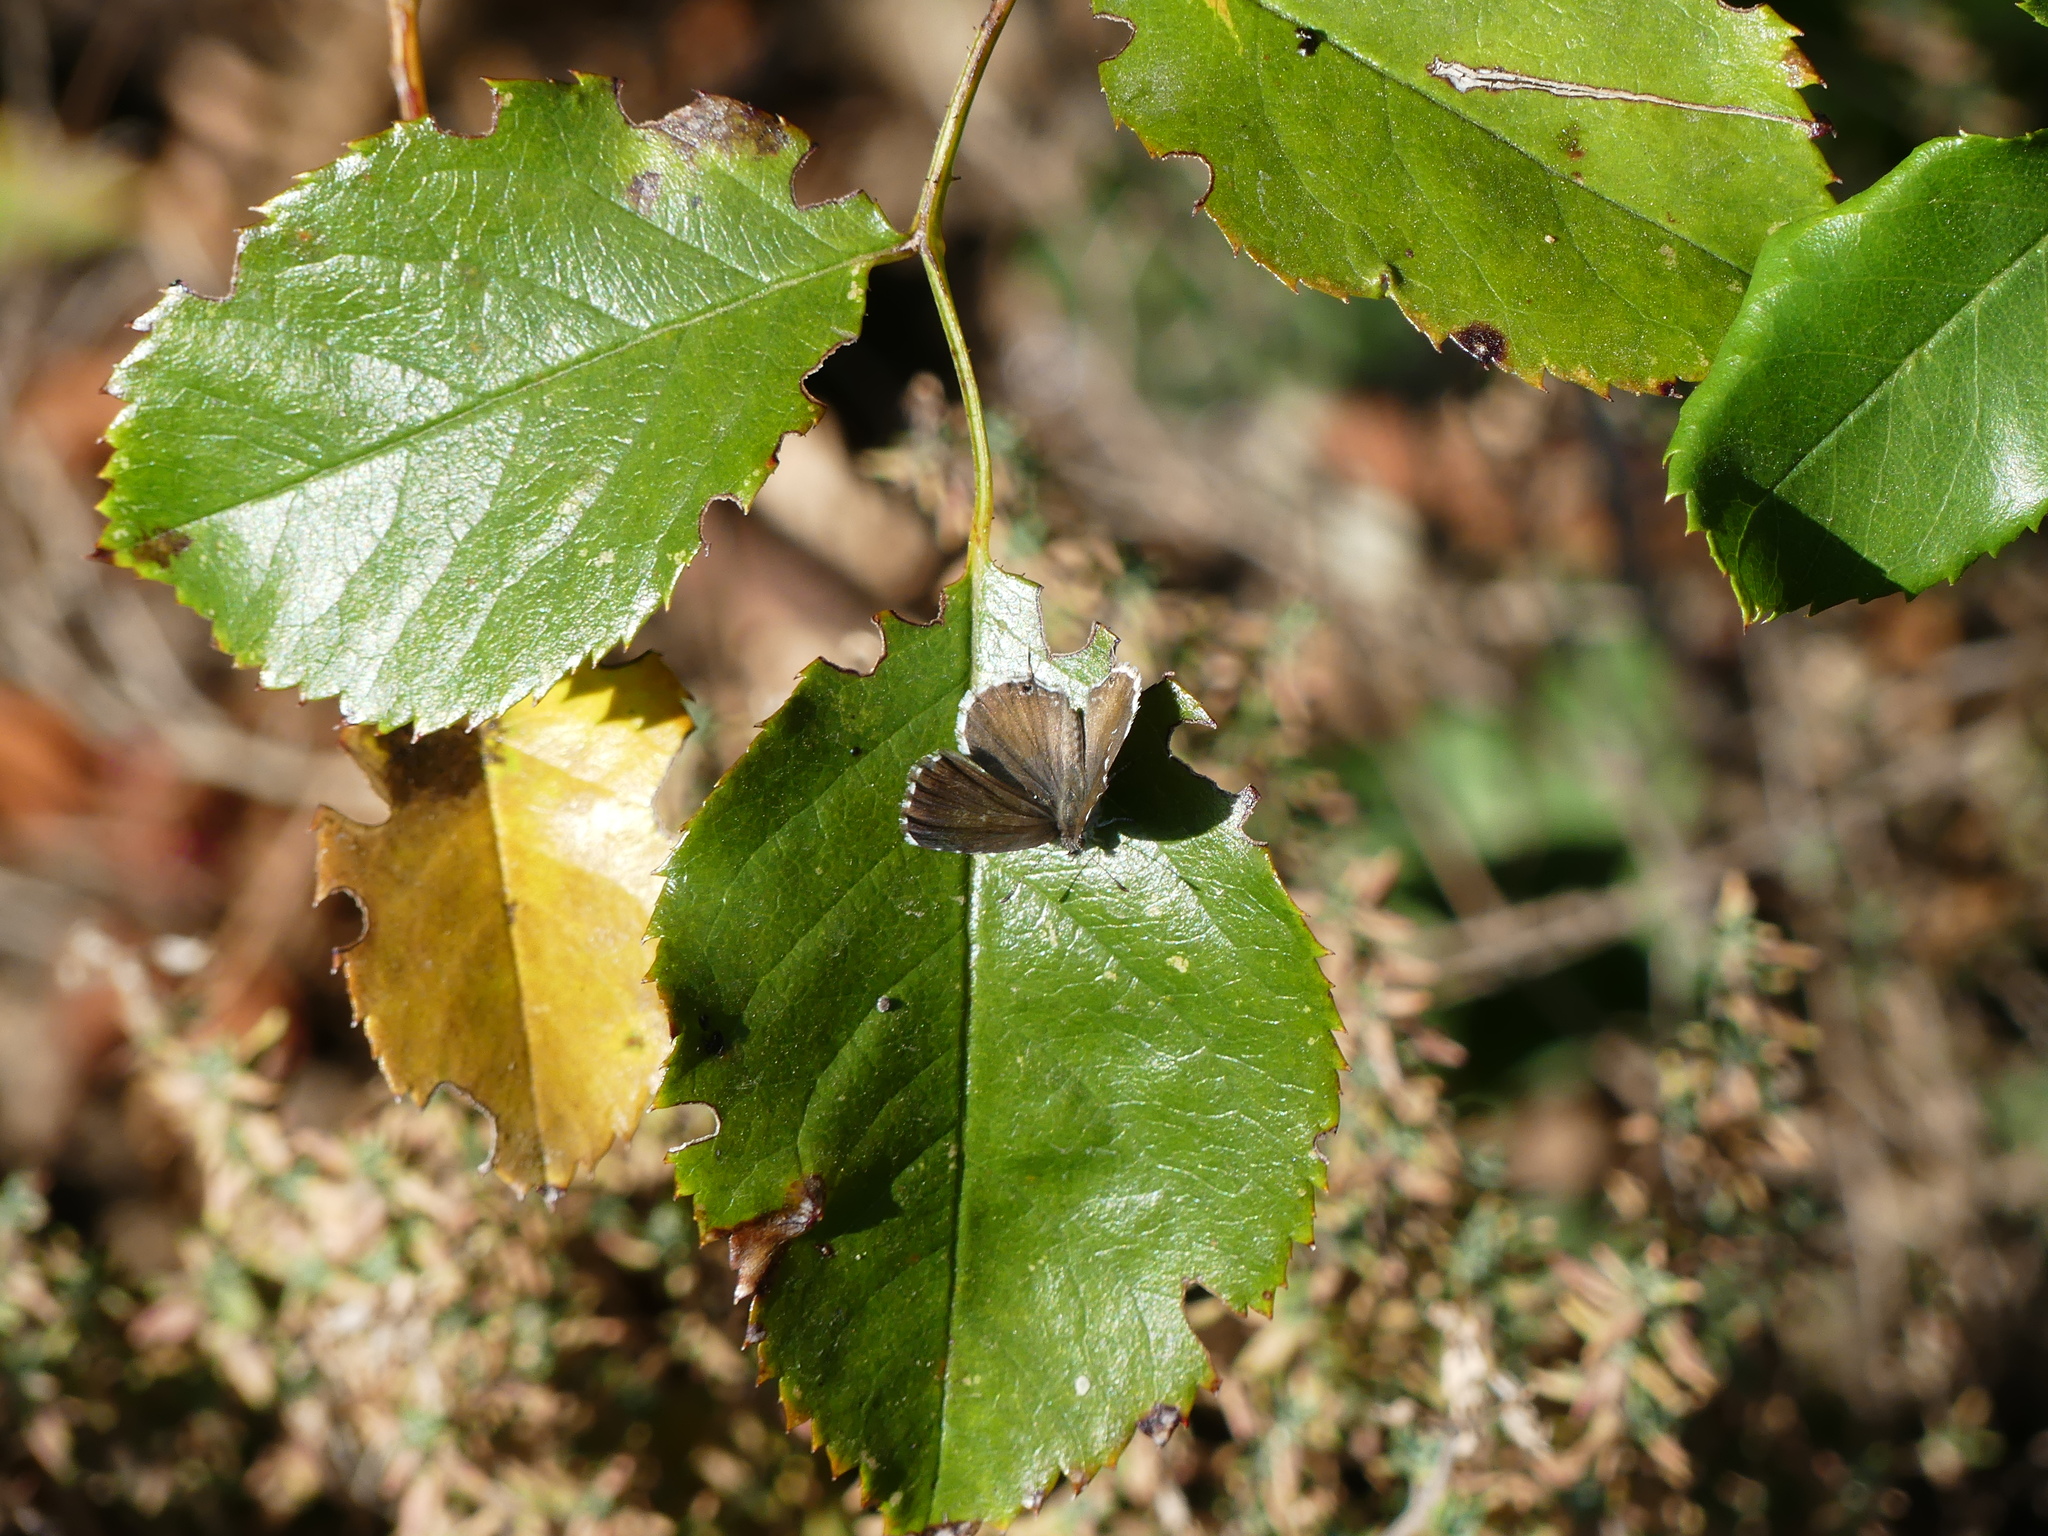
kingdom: Animalia
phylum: Arthropoda
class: Insecta
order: Lepidoptera
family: Lycaenidae
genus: Cacyreus
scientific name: Cacyreus marshalli
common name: Geranium bronze
